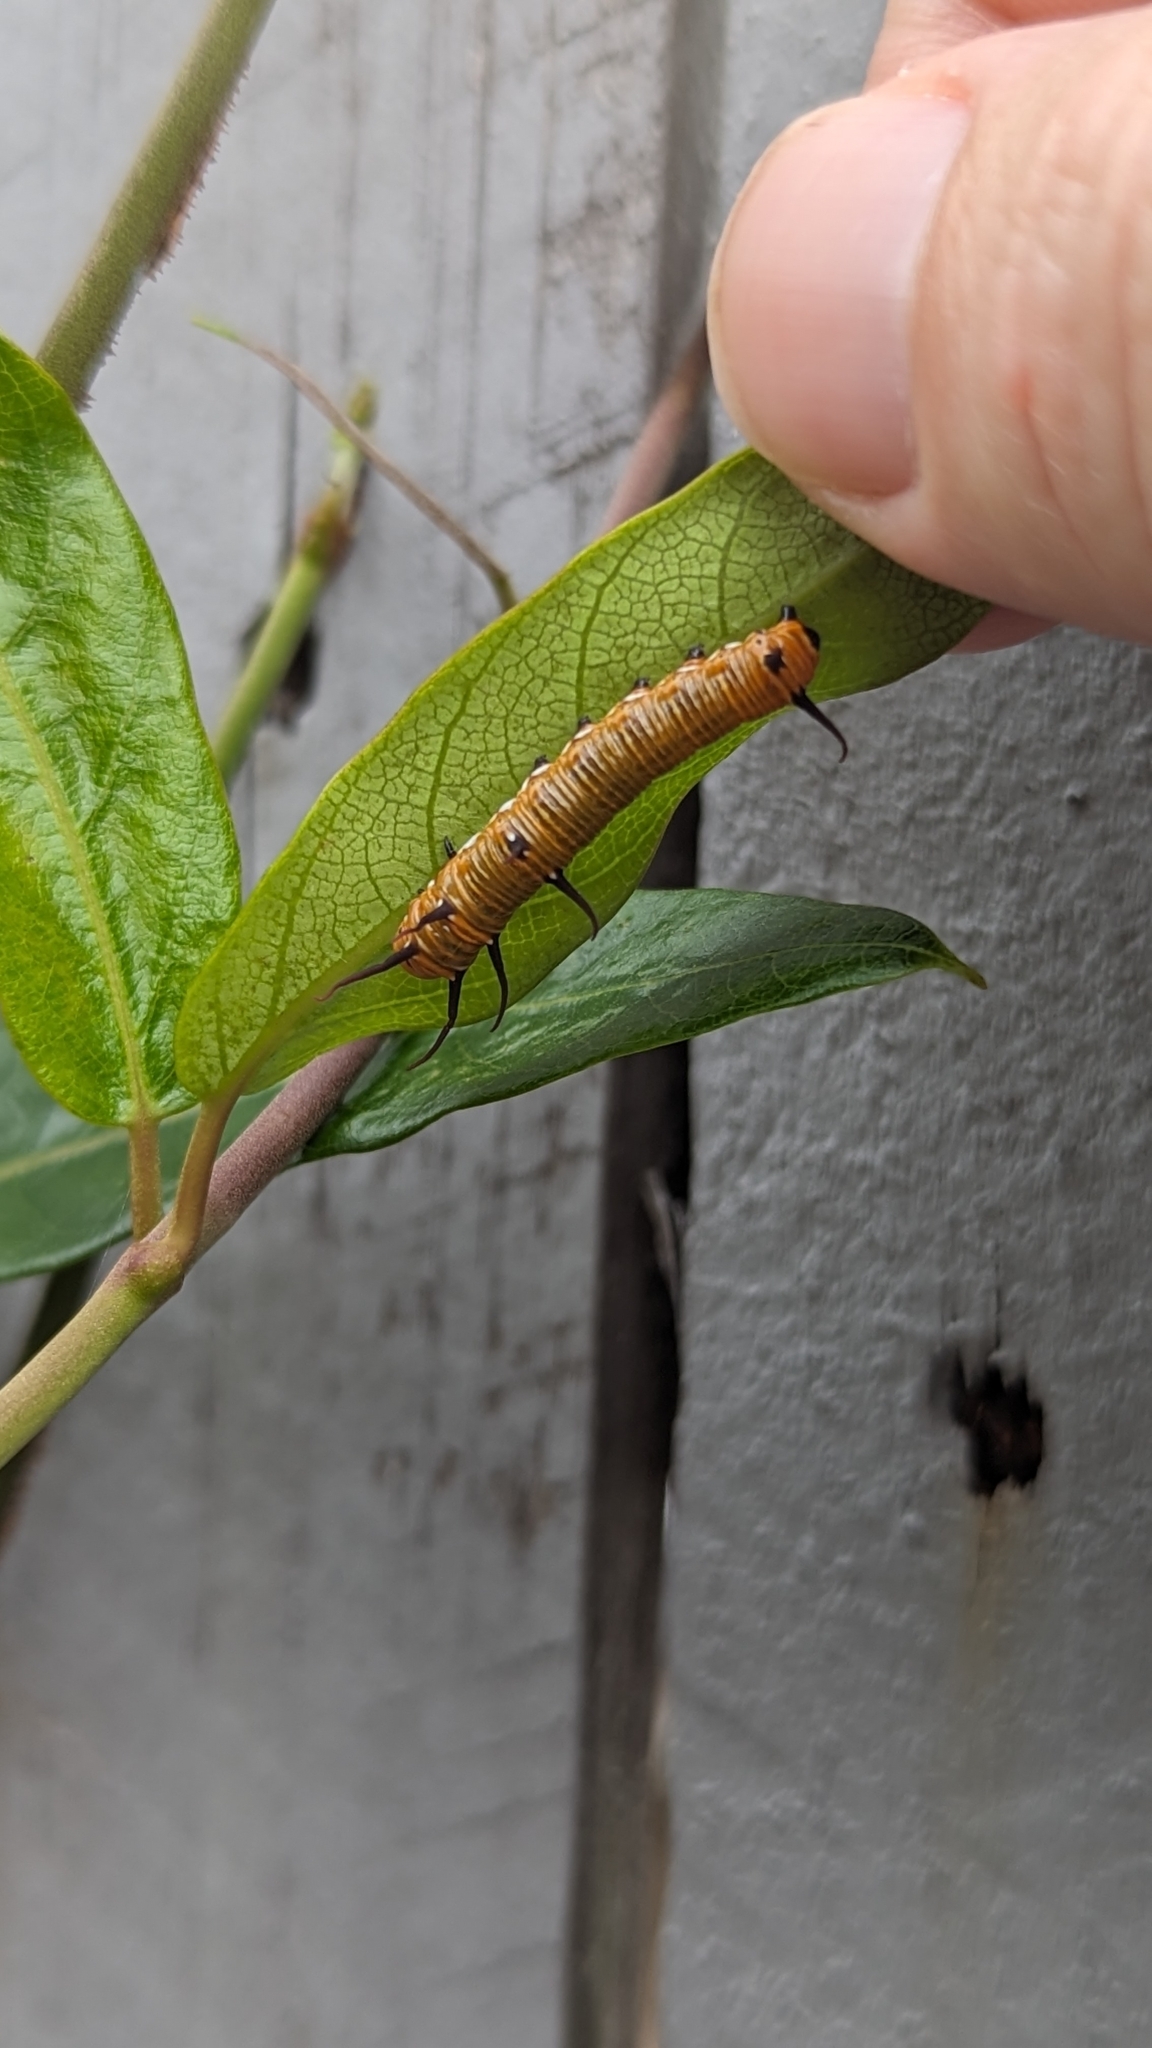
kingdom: Animalia
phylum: Arthropoda
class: Insecta
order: Lepidoptera
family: Nymphalidae
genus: Euploea
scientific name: Euploea core
